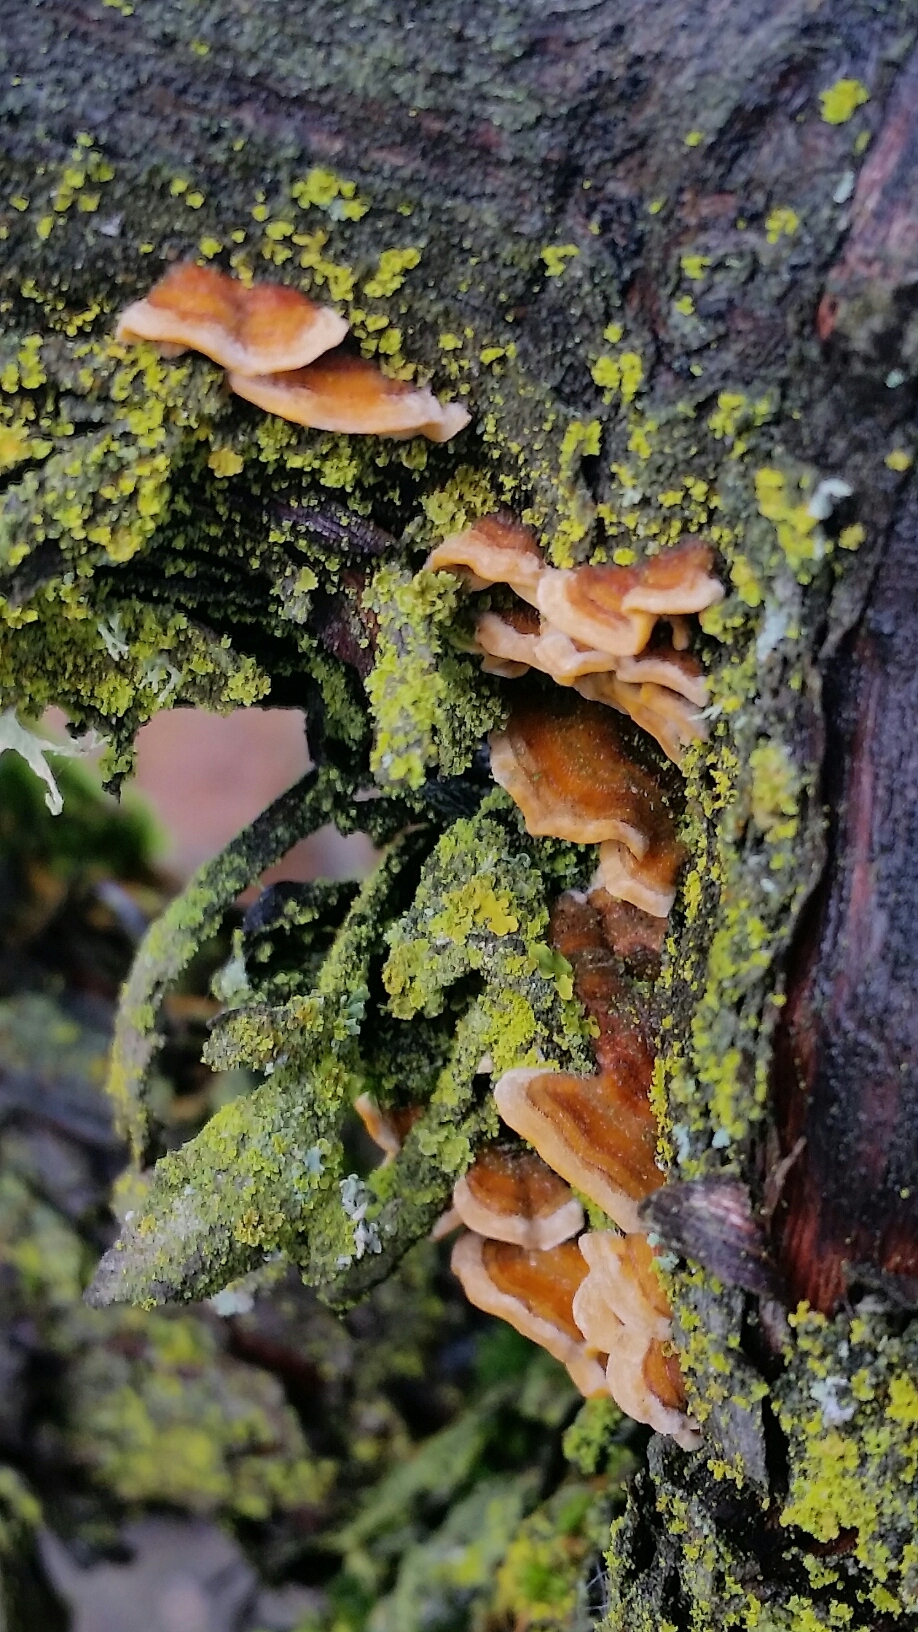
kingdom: Fungi
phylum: Basidiomycota
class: Agaricomycetes
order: Russulales
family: Stereaceae
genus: Stereum
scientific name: Stereum hirsutum
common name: Hairy curtain crust
